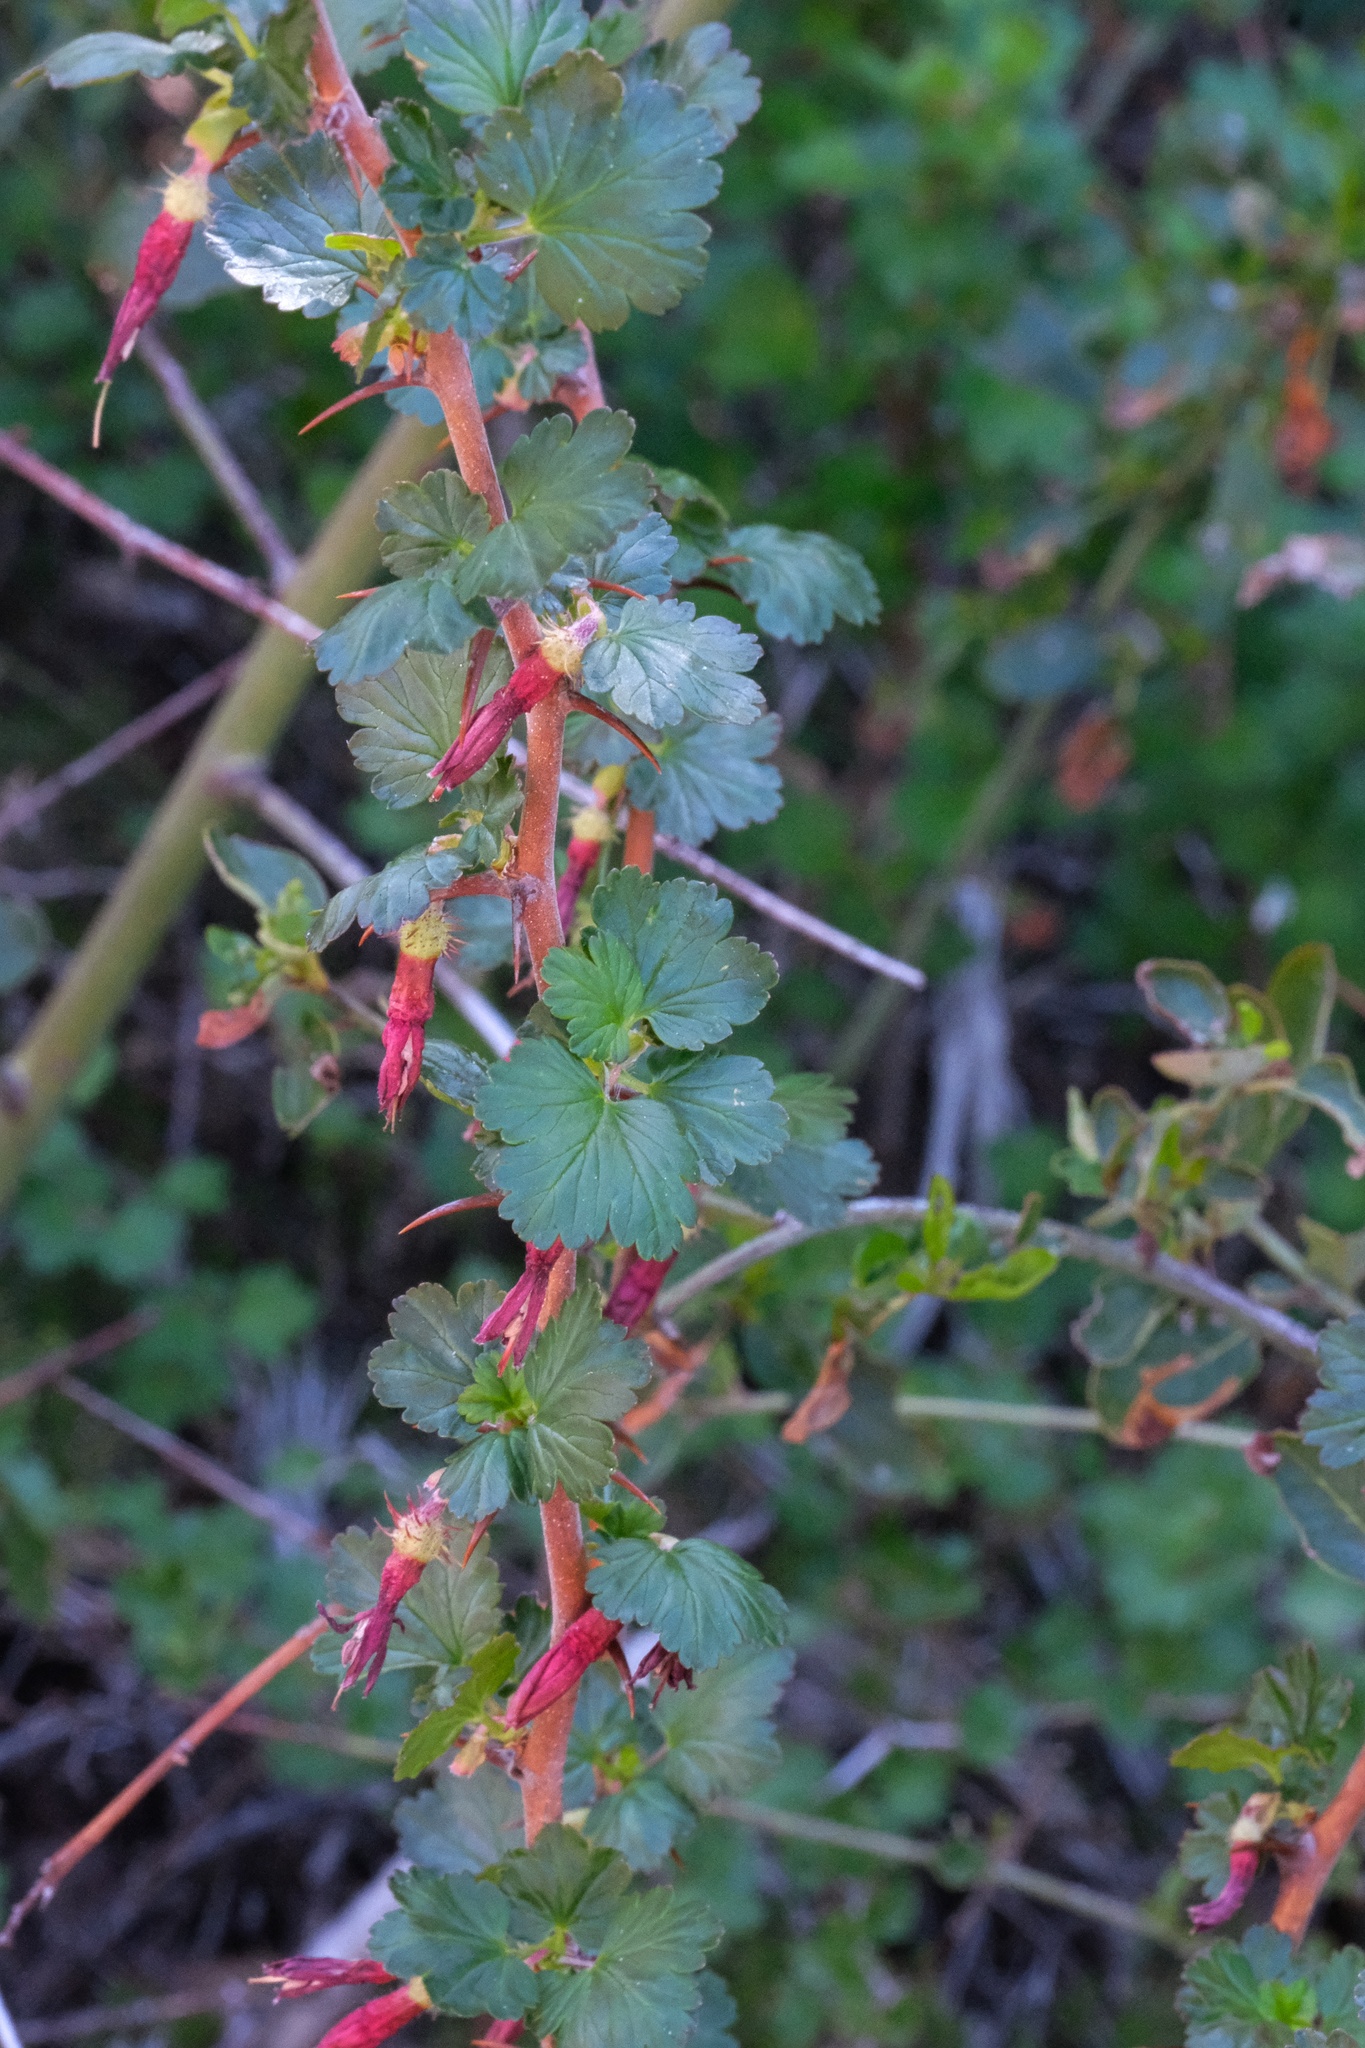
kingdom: Plantae
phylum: Tracheophyta
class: Magnoliopsida
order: Saxifragales
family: Grossulariaceae
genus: Ribes
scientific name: Ribes roezlii
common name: Sierra gooseberry
